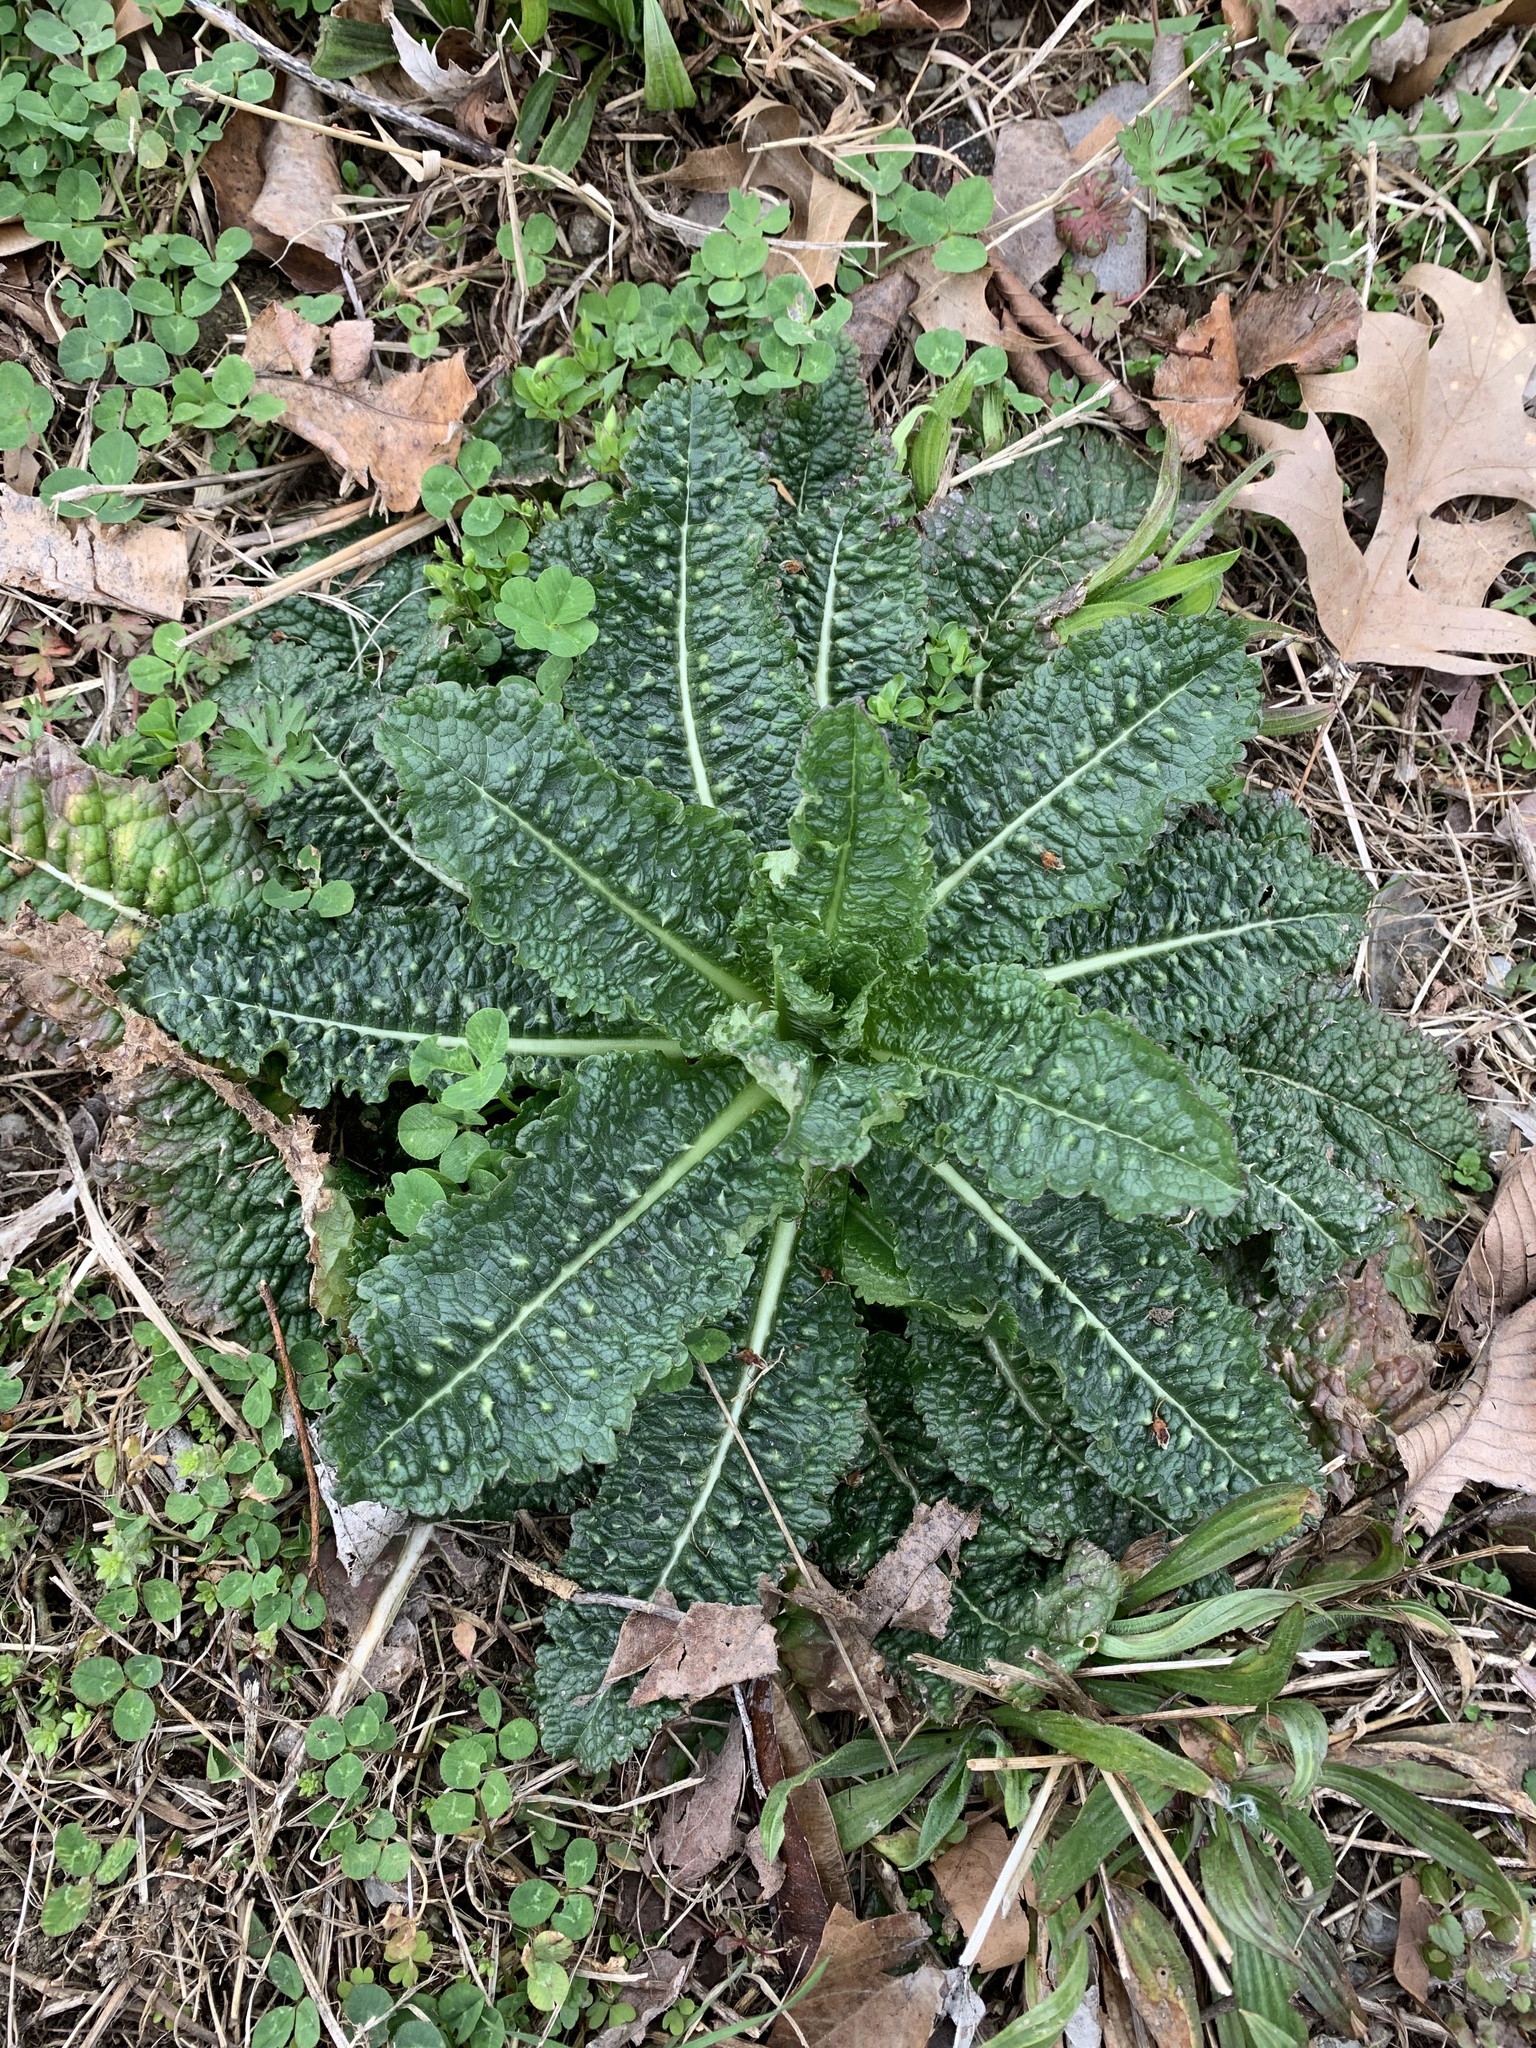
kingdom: Plantae
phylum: Tracheophyta
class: Magnoliopsida
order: Dipsacales
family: Caprifoliaceae
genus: Dipsacus
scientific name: Dipsacus fullonum
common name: Teasel
